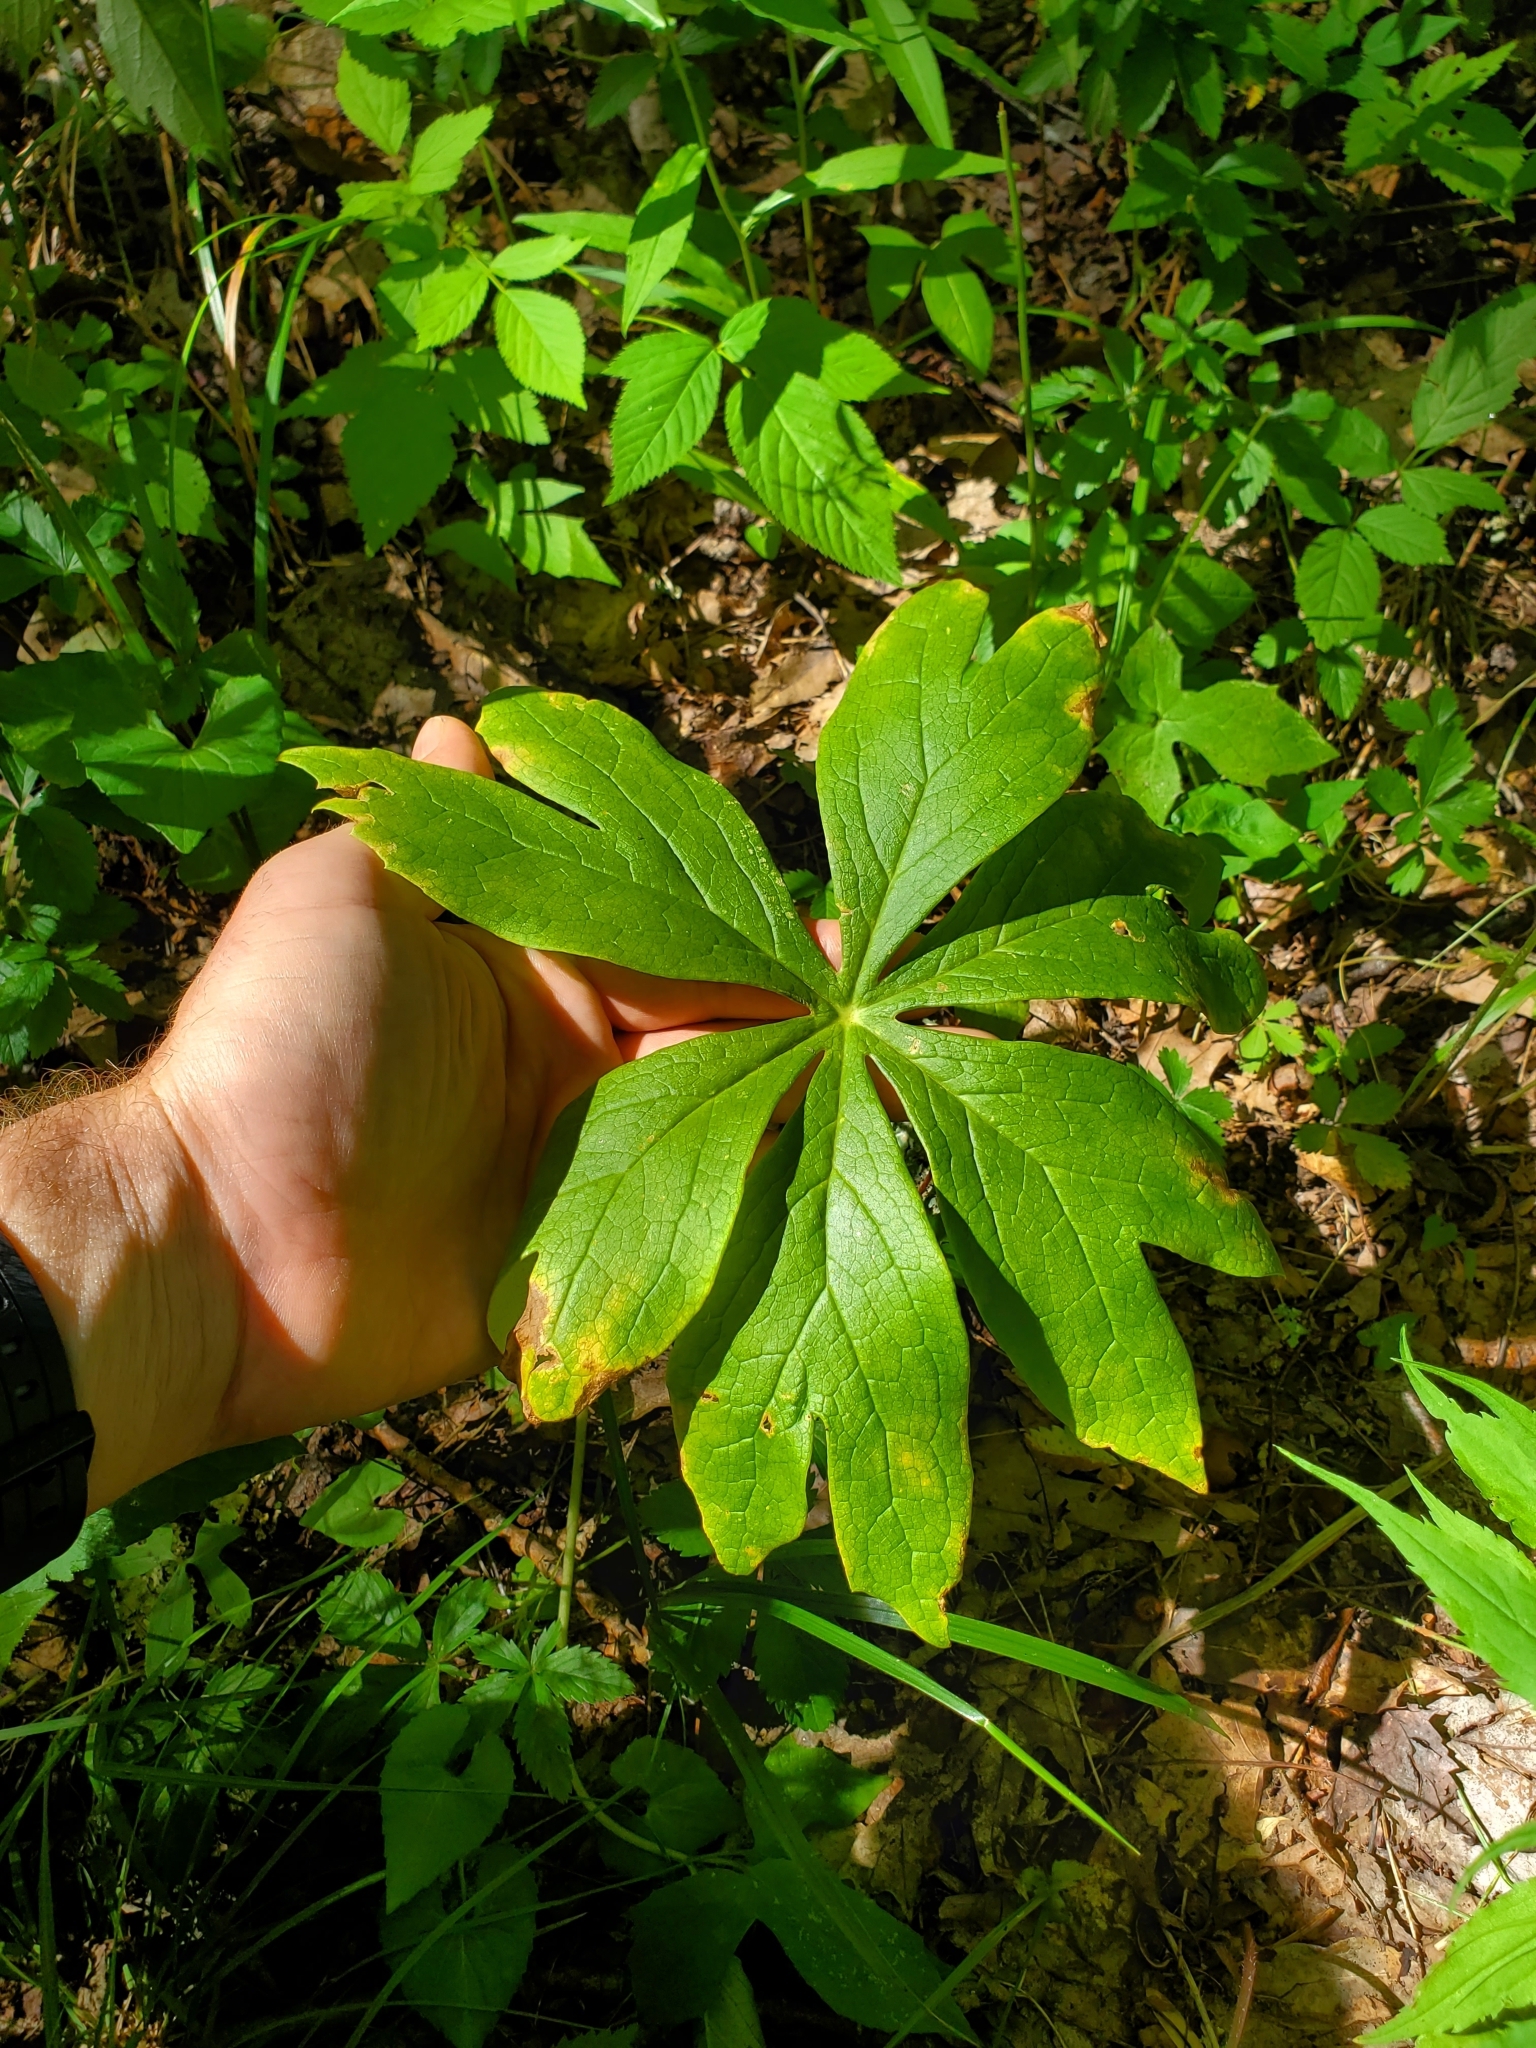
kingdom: Plantae
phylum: Tracheophyta
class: Magnoliopsida
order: Ranunculales
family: Berberidaceae
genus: Podophyllum
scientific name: Podophyllum peltatum
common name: Wild mandrake
